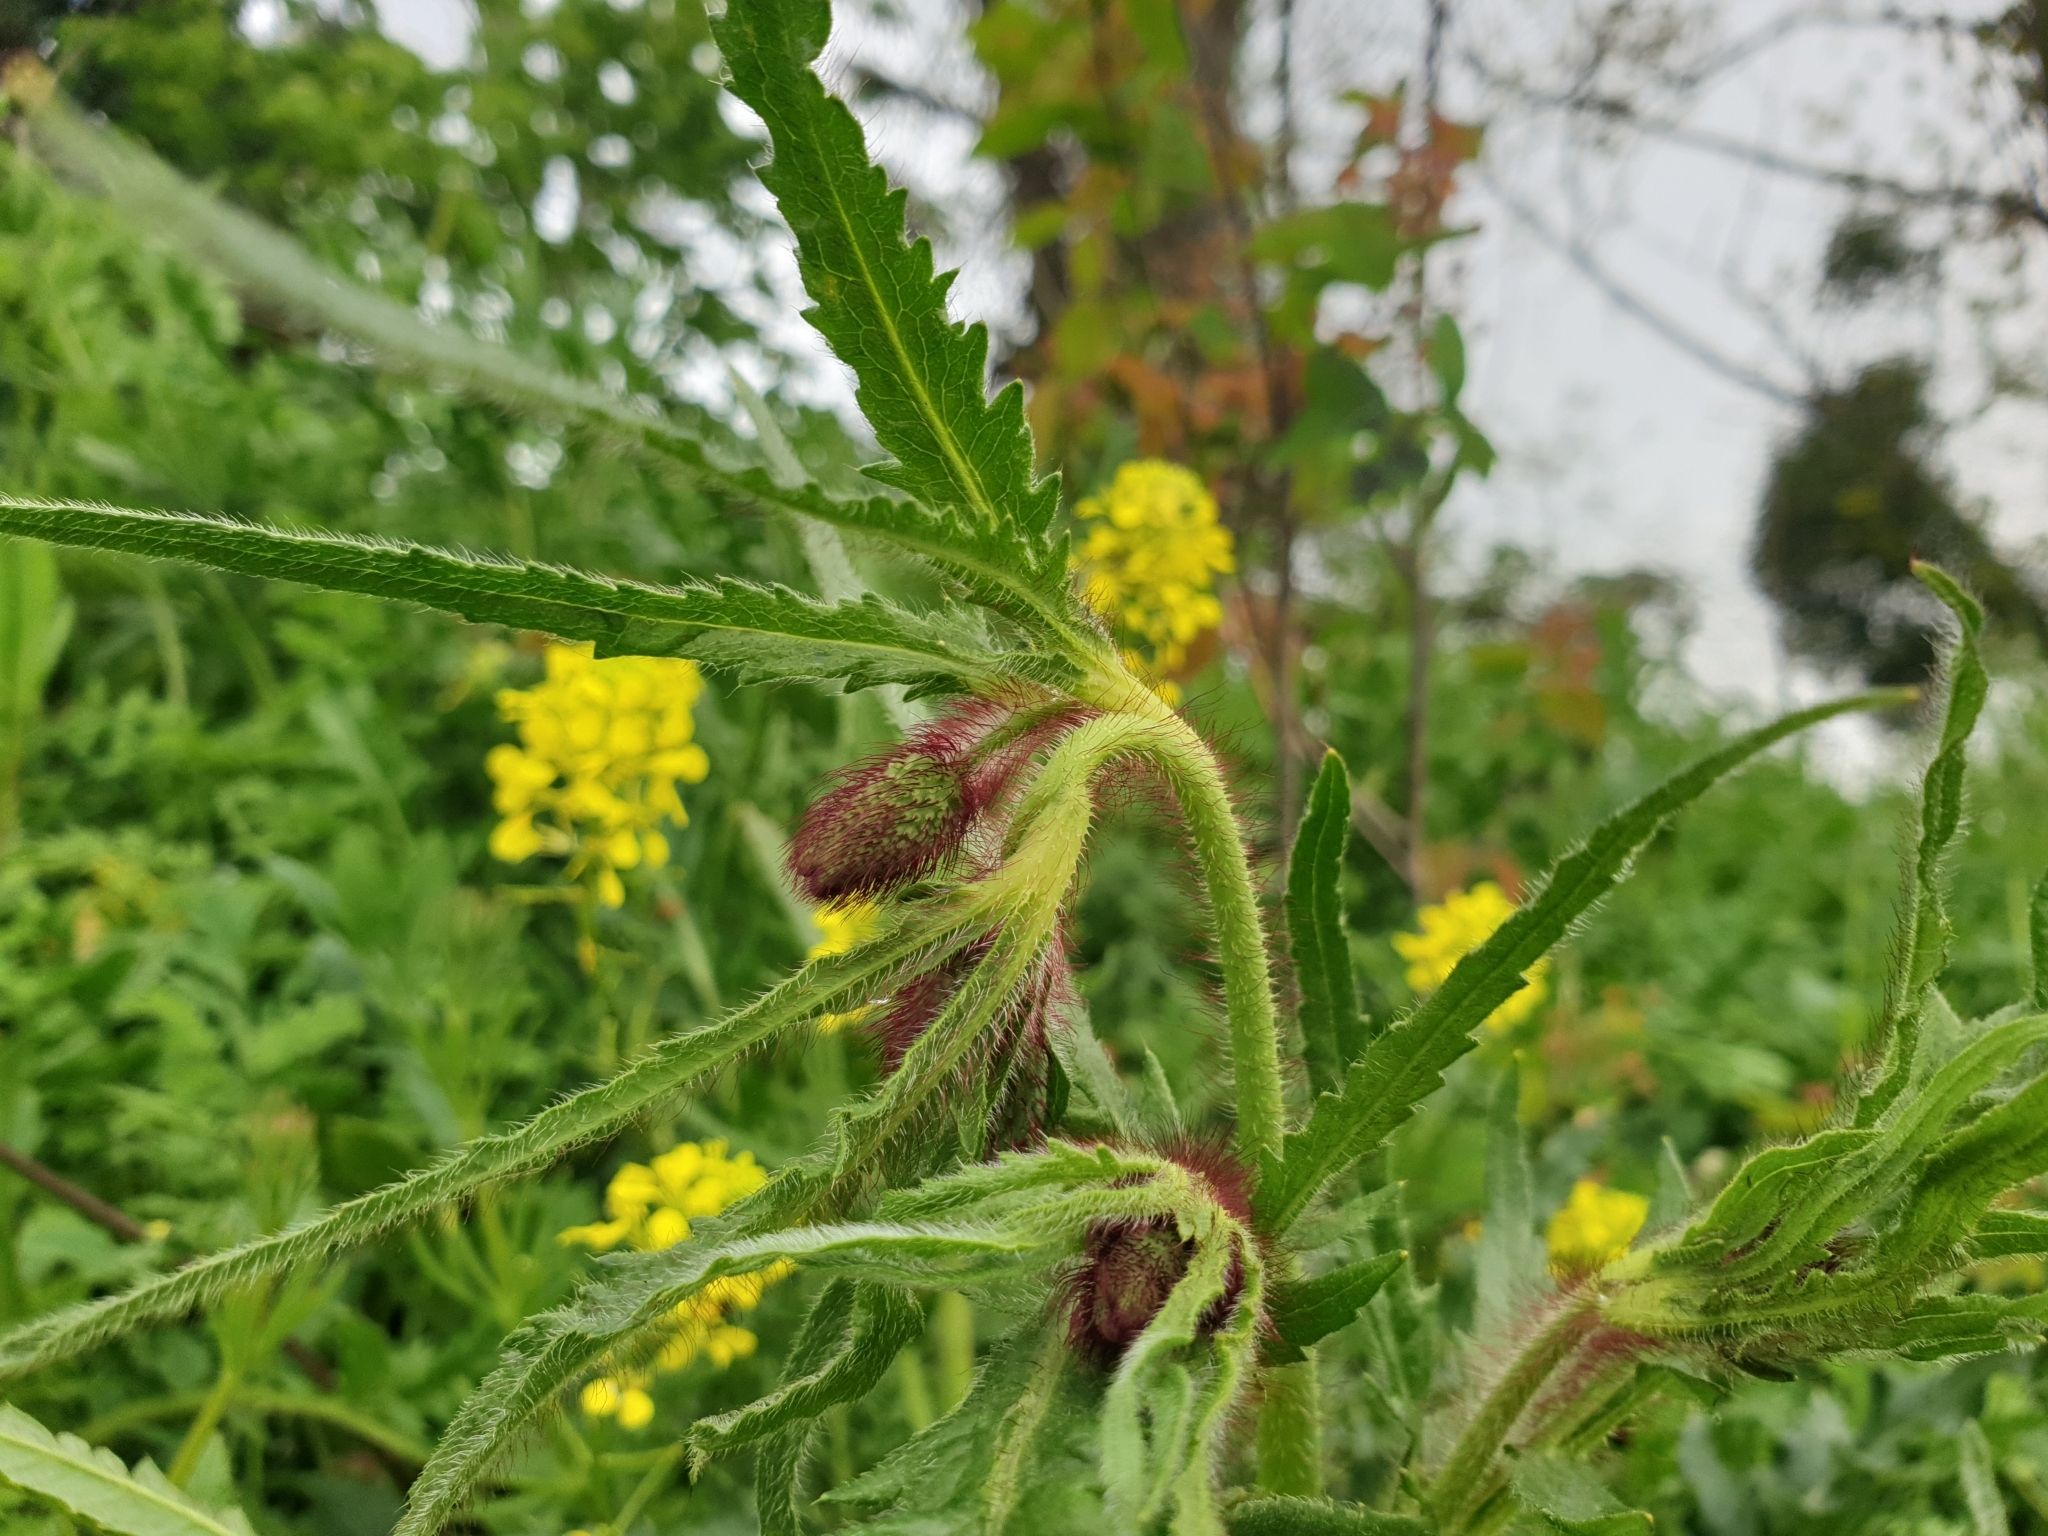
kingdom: Plantae
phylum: Tracheophyta
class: Magnoliopsida
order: Ranunculales
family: Papaveraceae
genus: Papaver
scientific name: Papaver rhoeas
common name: Corn poppy
